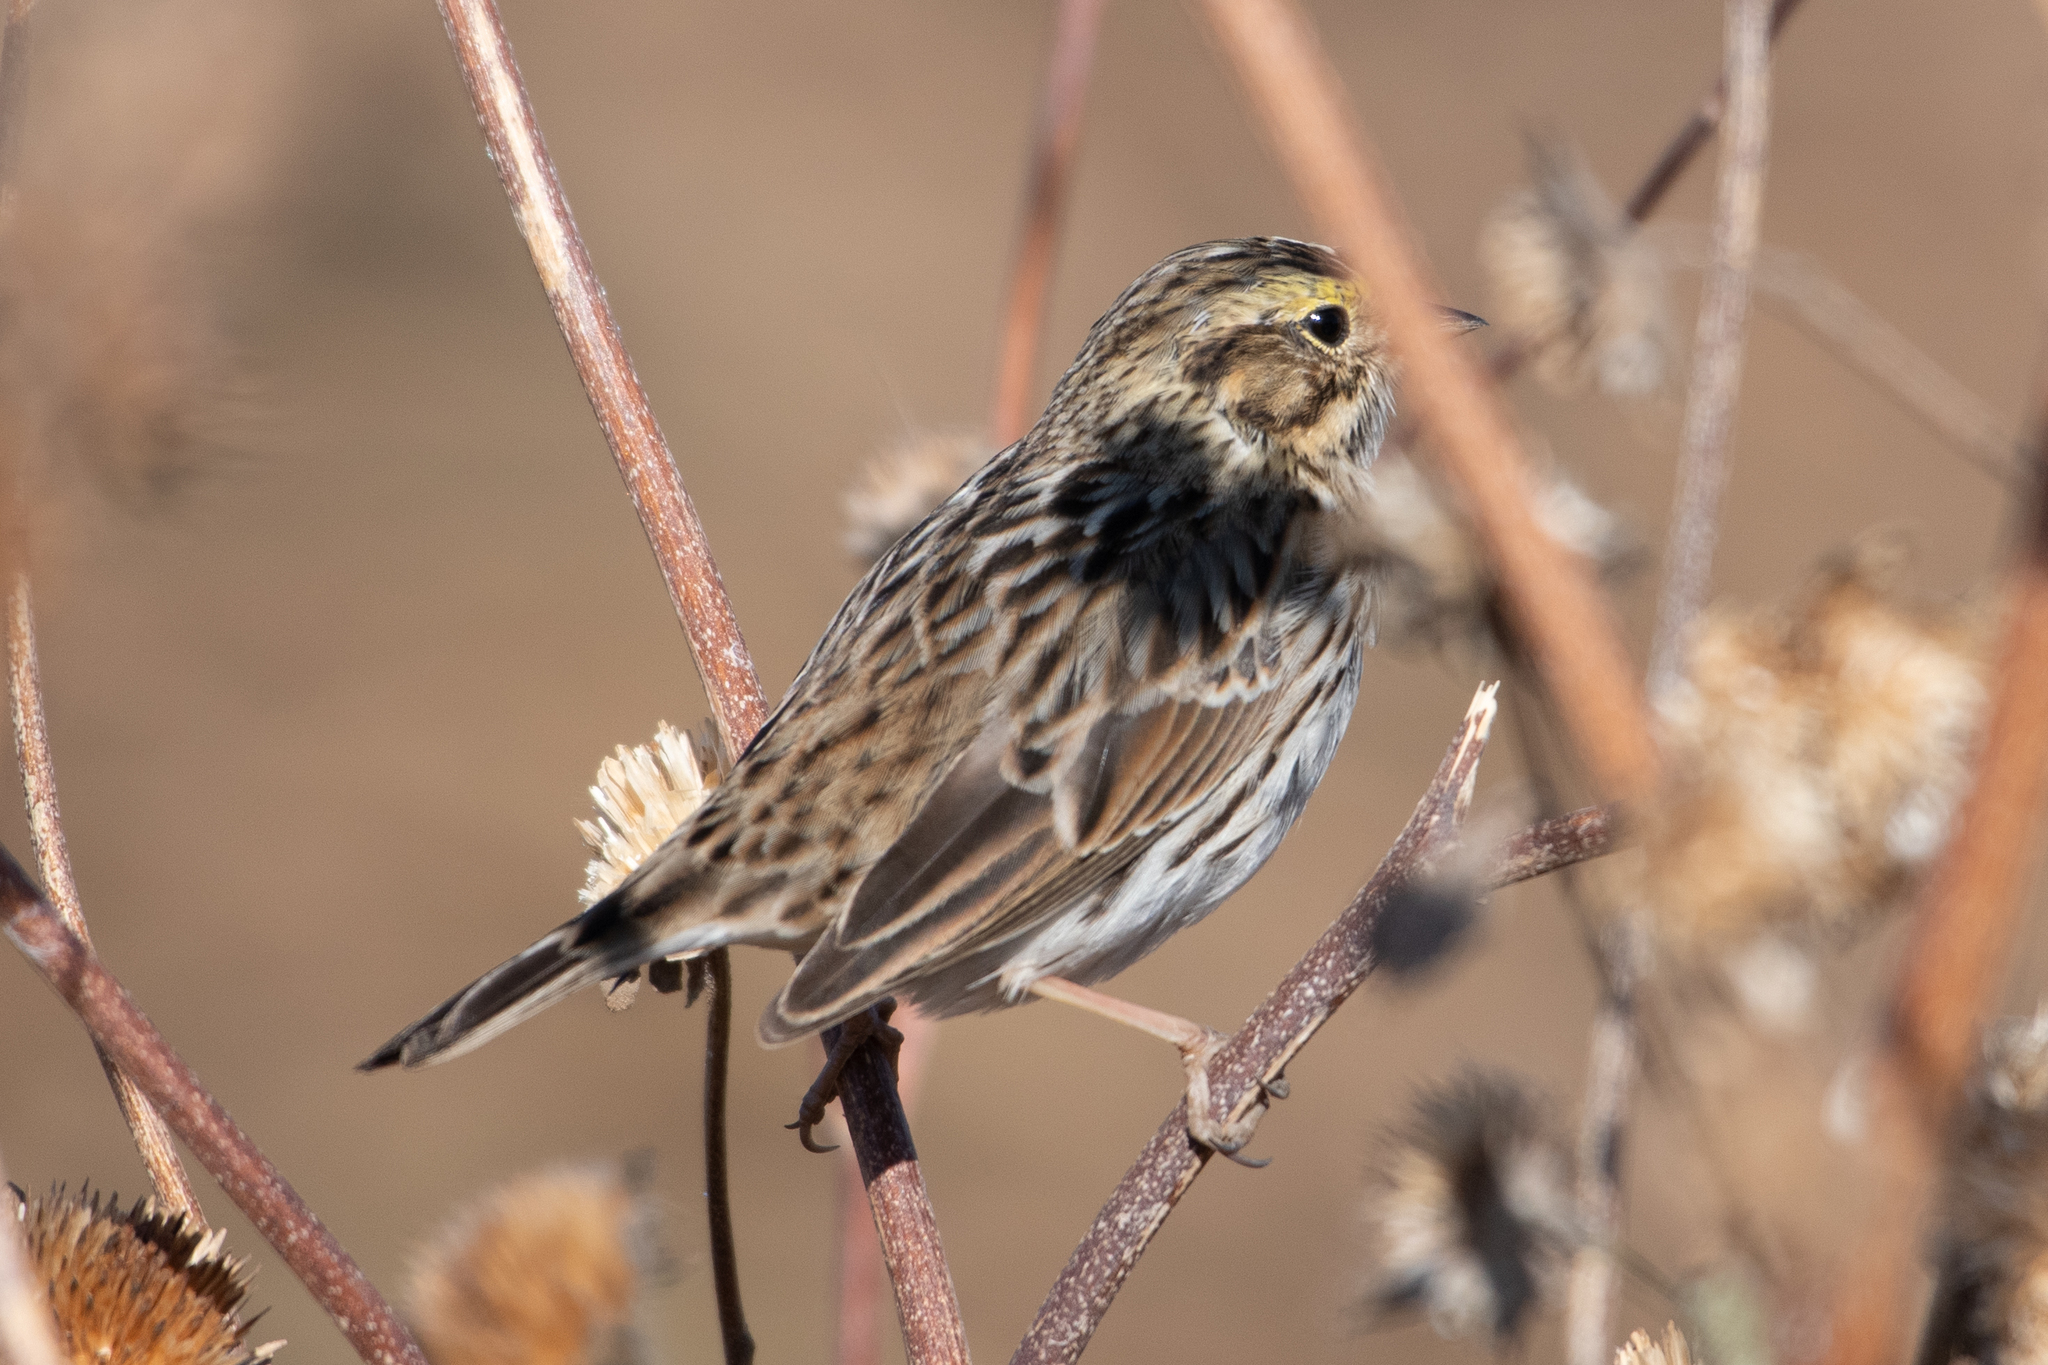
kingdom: Animalia
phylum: Chordata
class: Aves
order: Passeriformes
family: Passerellidae
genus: Passerculus
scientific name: Passerculus sandwichensis
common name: Savannah sparrow
